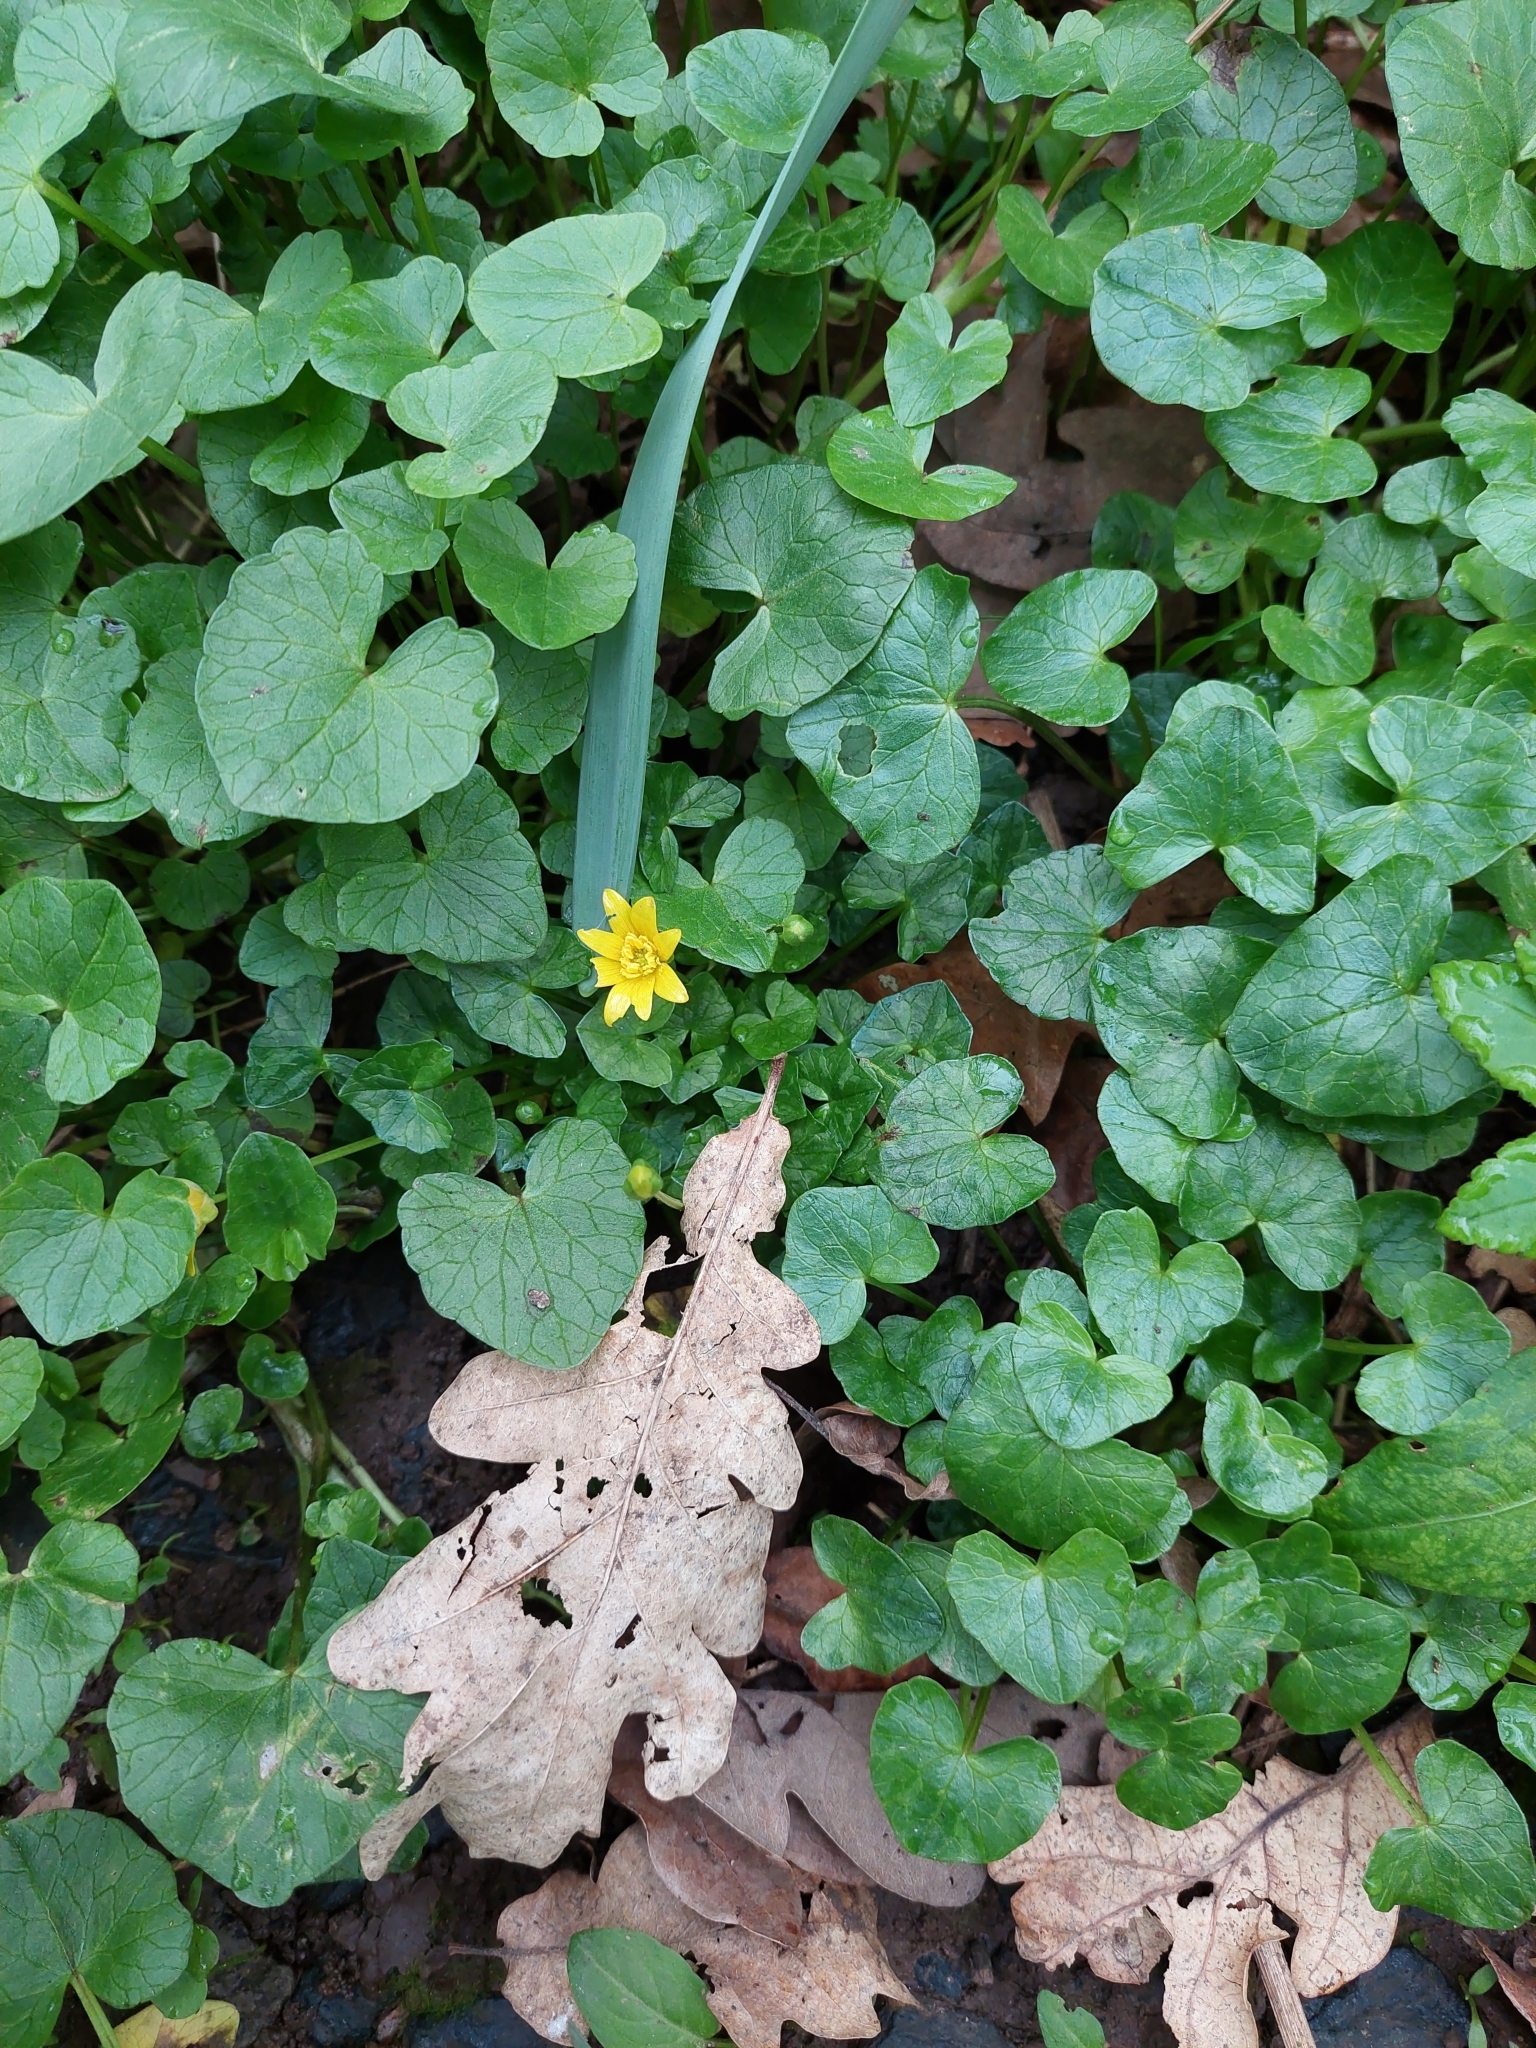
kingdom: Plantae
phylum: Tracheophyta
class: Magnoliopsida
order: Ranunculales
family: Ranunculaceae
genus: Ficaria
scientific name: Ficaria verna
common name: Lesser celandine
